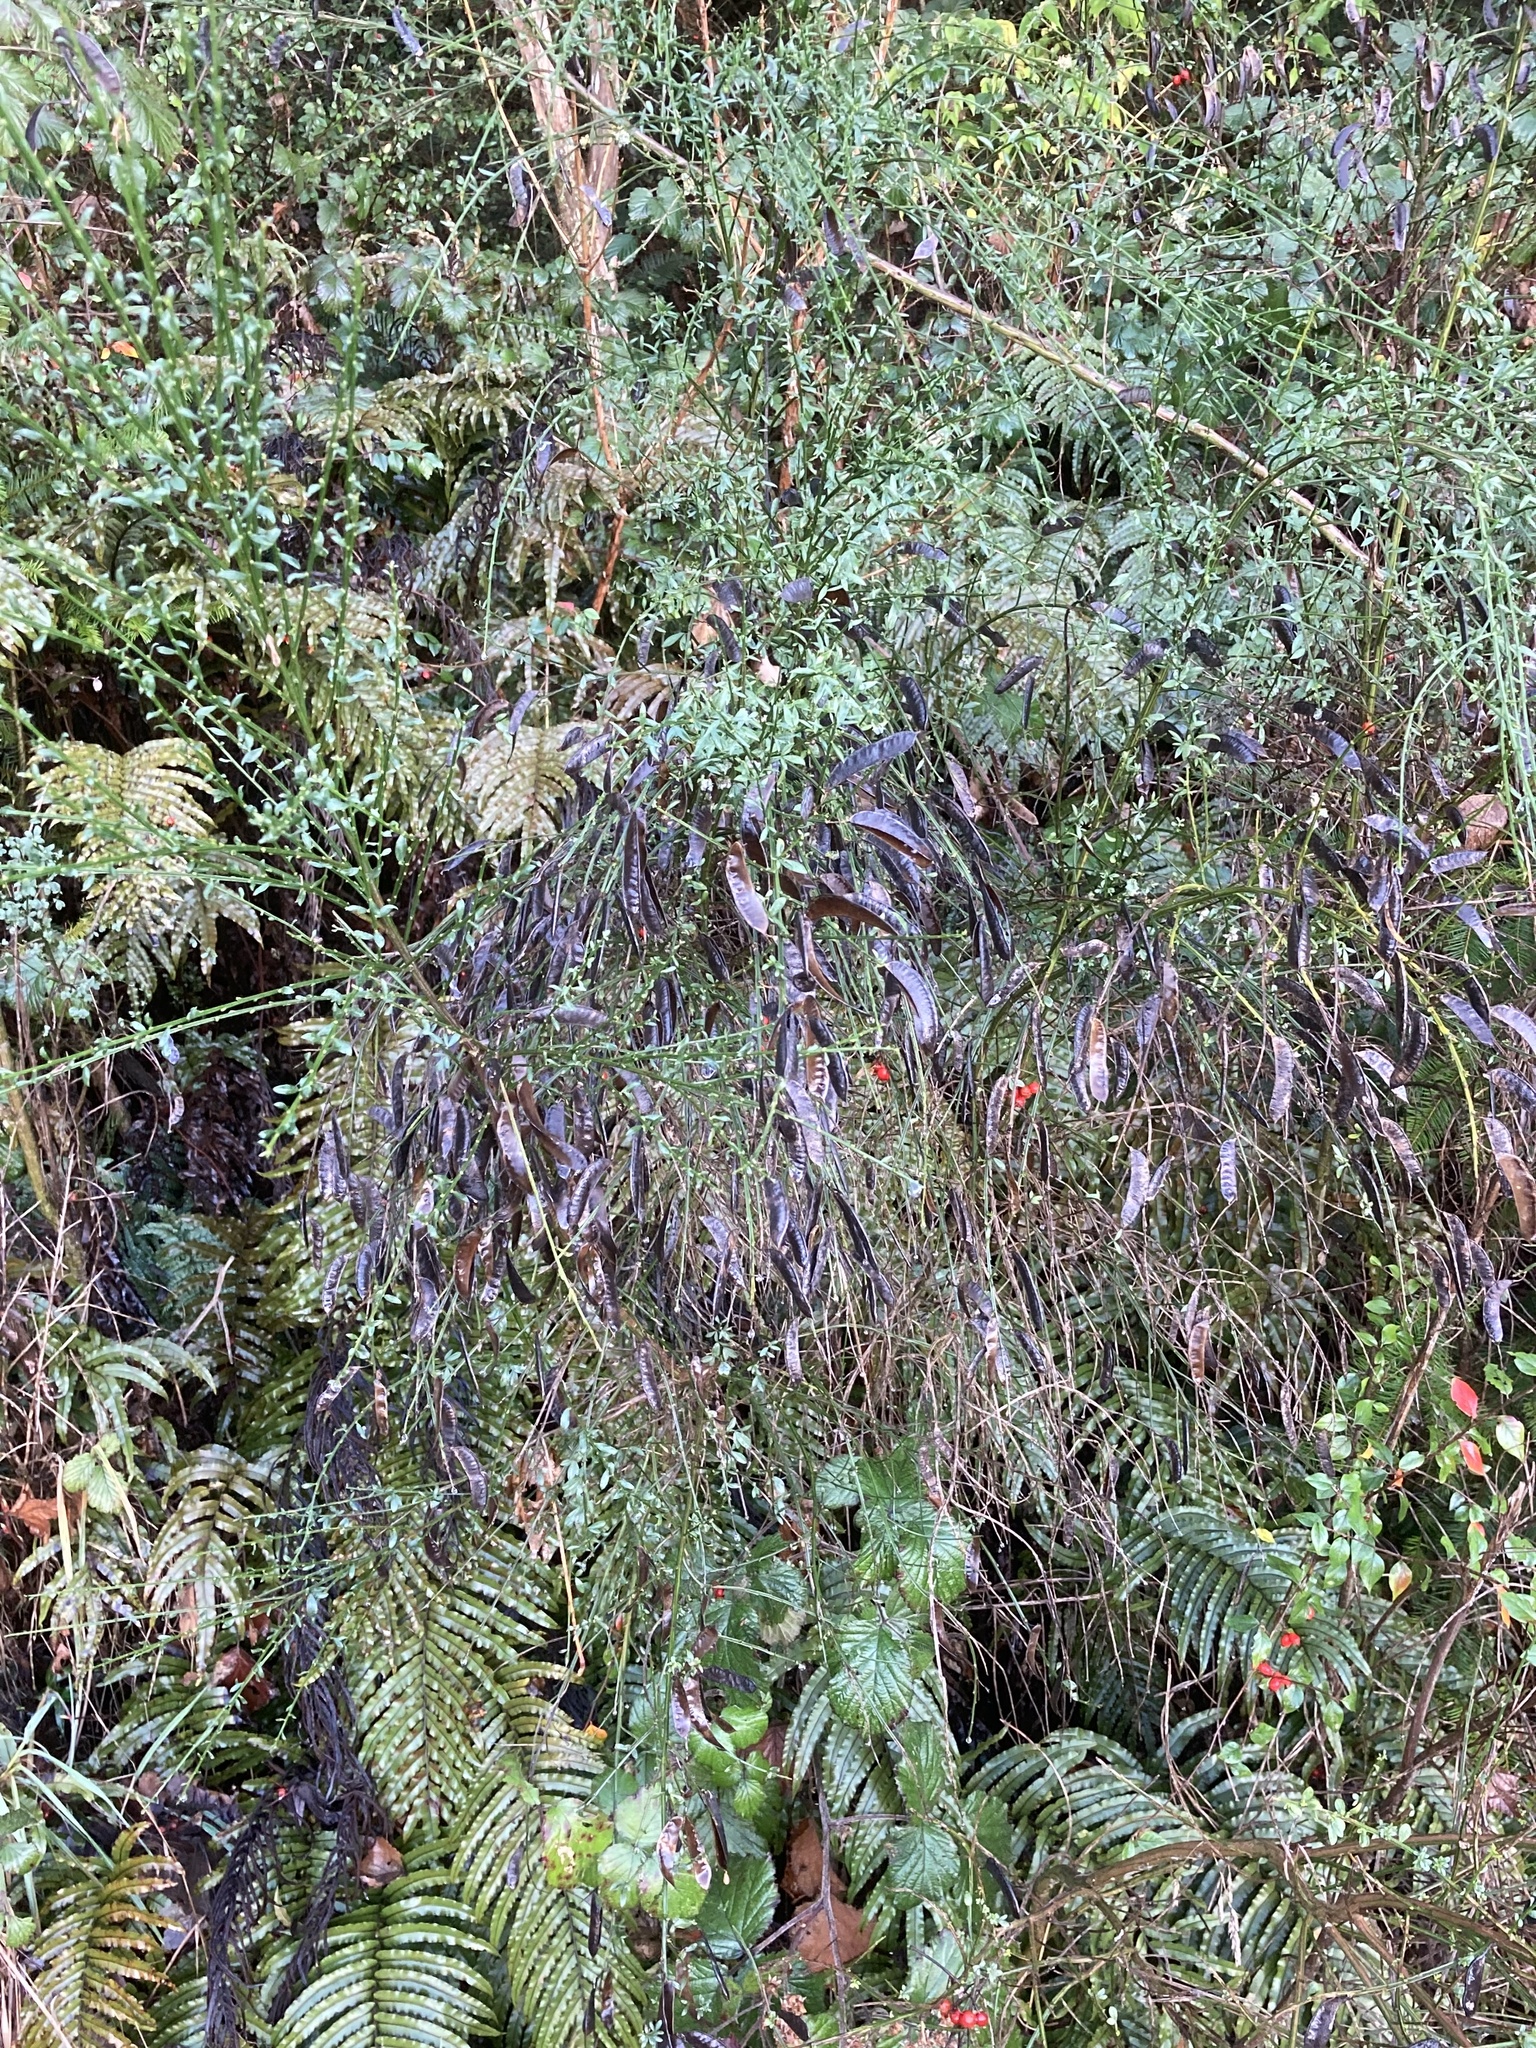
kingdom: Plantae
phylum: Tracheophyta
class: Magnoliopsida
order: Fabales
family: Fabaceae
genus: Cytisus
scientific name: Cytisus scoparius
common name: Scotch broom
